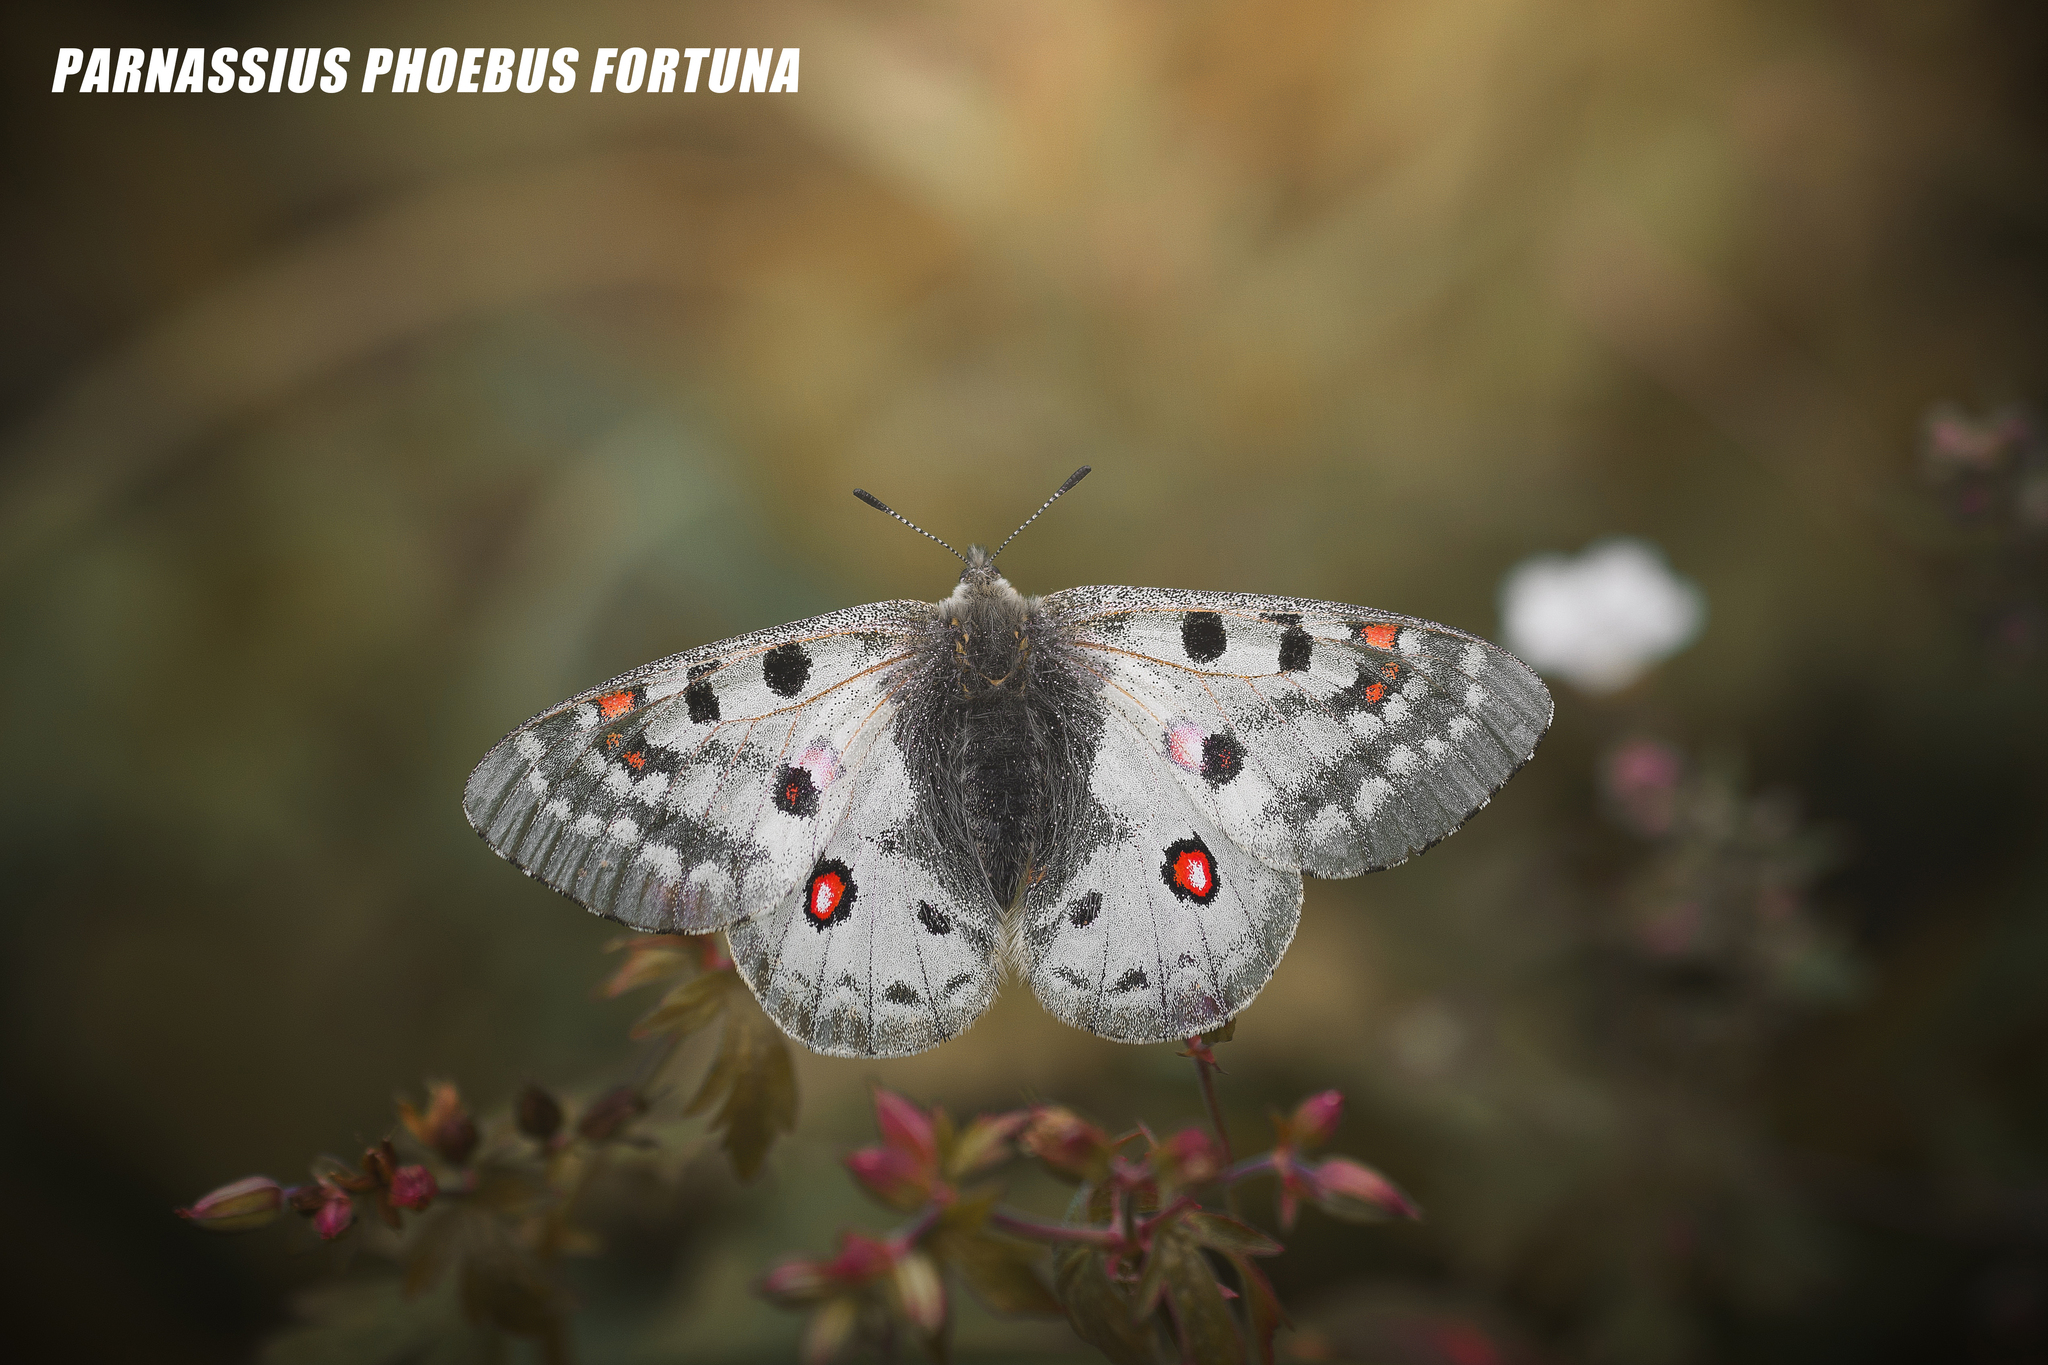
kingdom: Animalia
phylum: Arthropoda
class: Insecta
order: Lepidoptera
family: Papilionidae
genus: Parnassius
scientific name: Parnassius phoebus
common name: Small apollo
